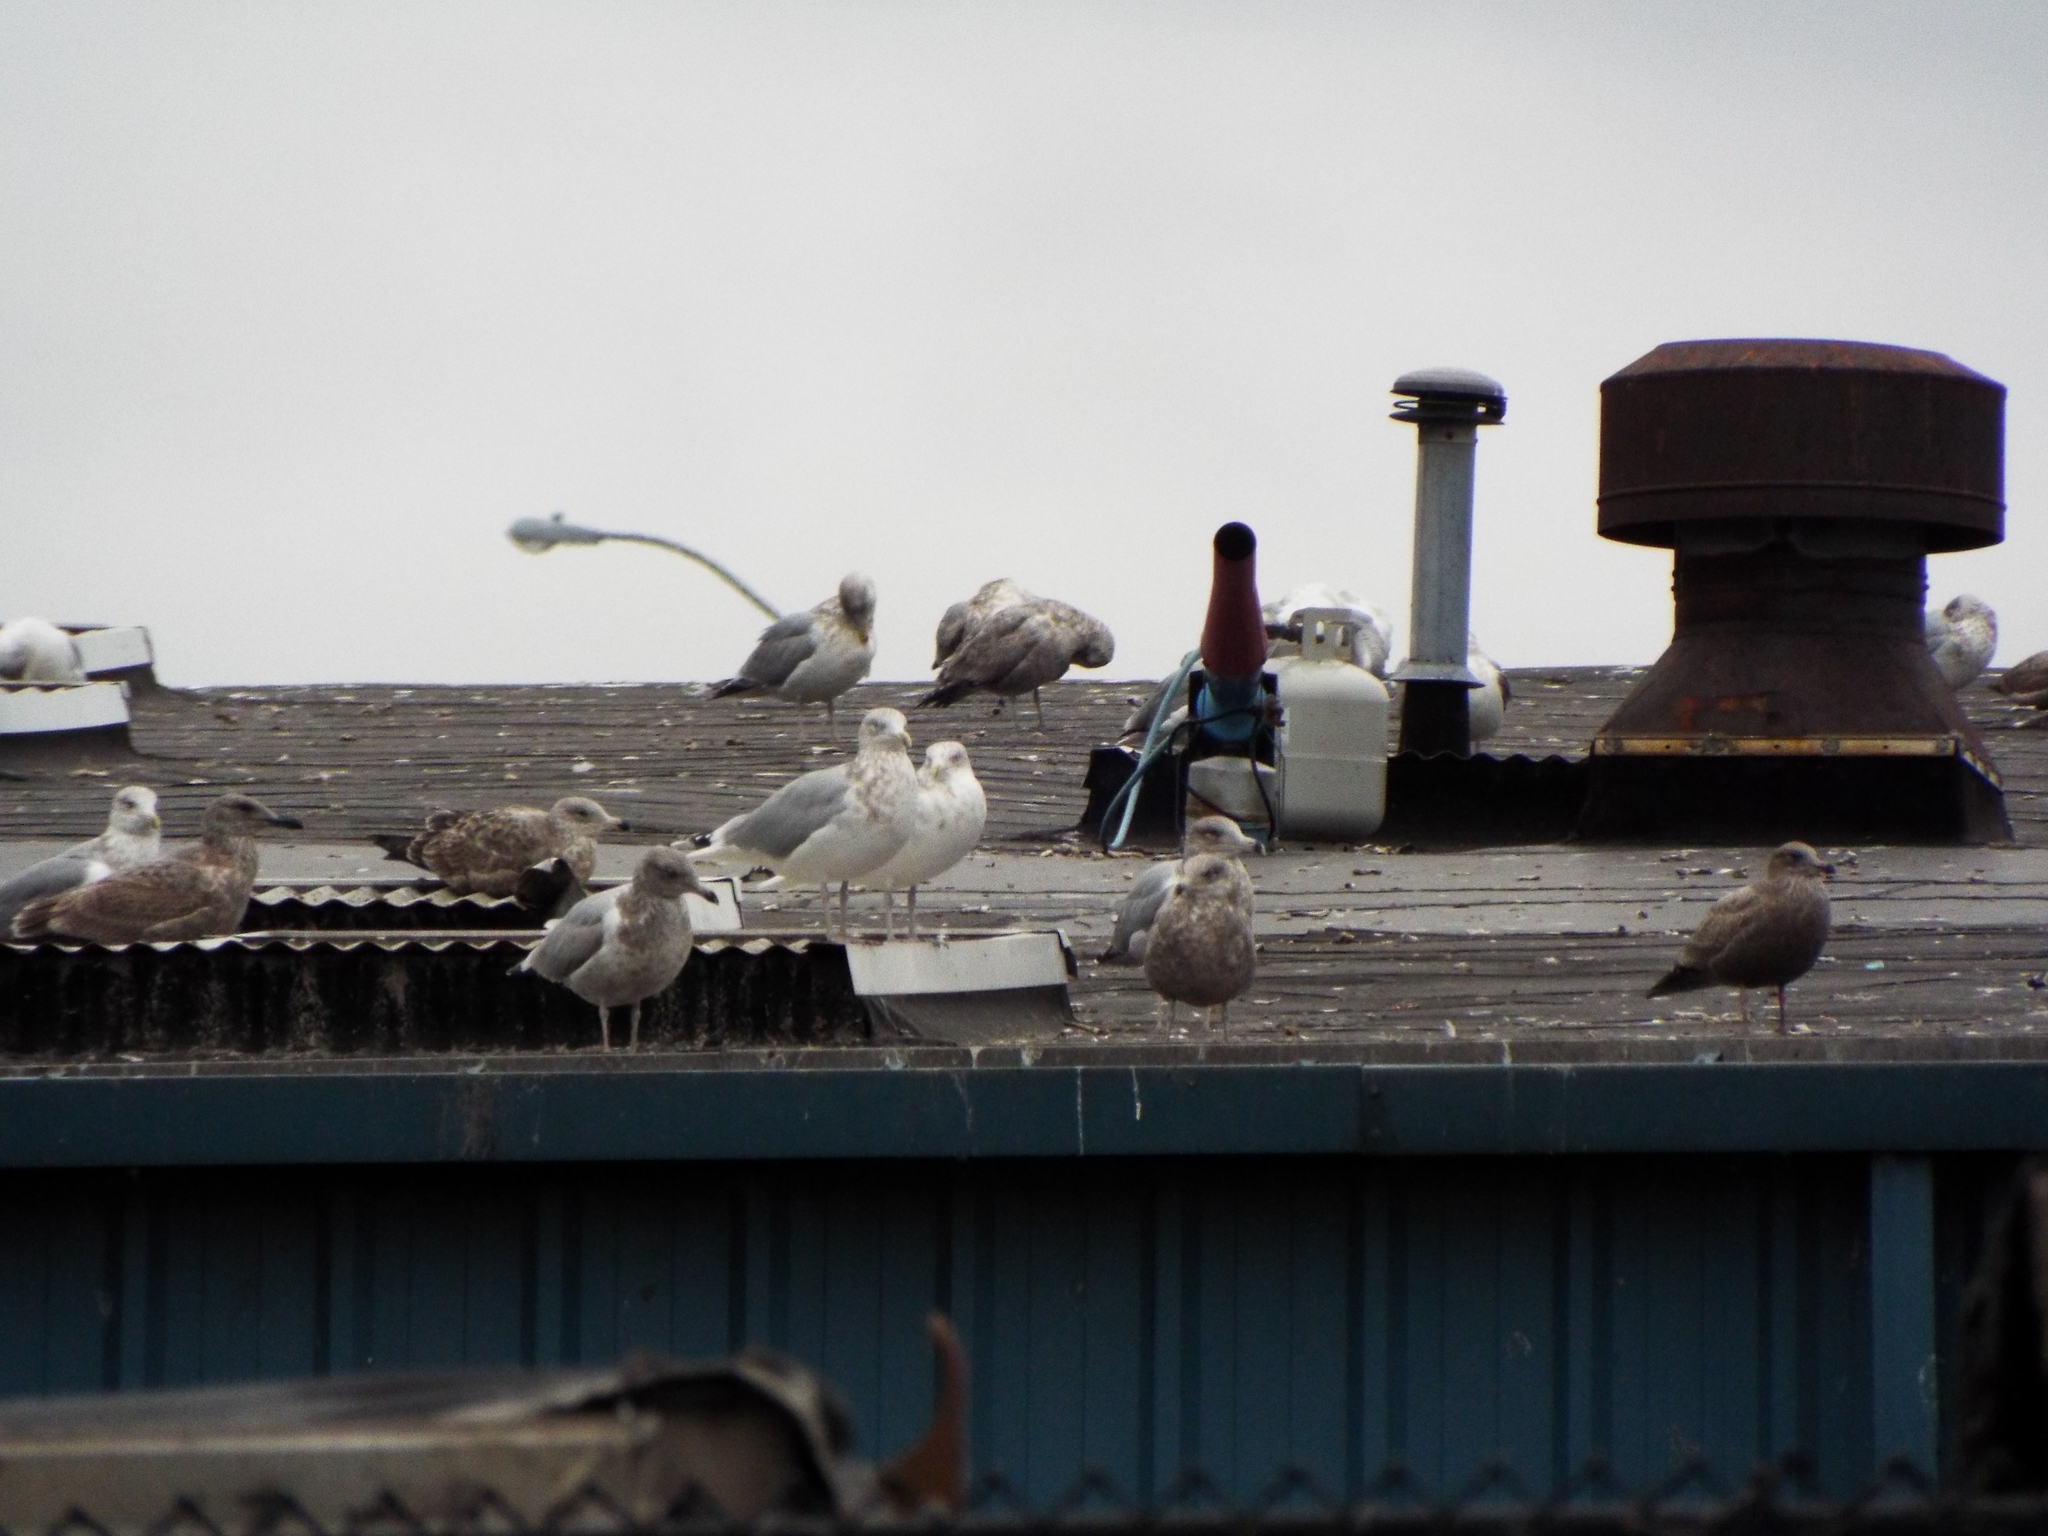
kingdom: Animalia
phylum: Chordata
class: Aves
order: Charadriiformes
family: Laridae
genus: Larus
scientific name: Larus argentatus
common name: Herring gull
